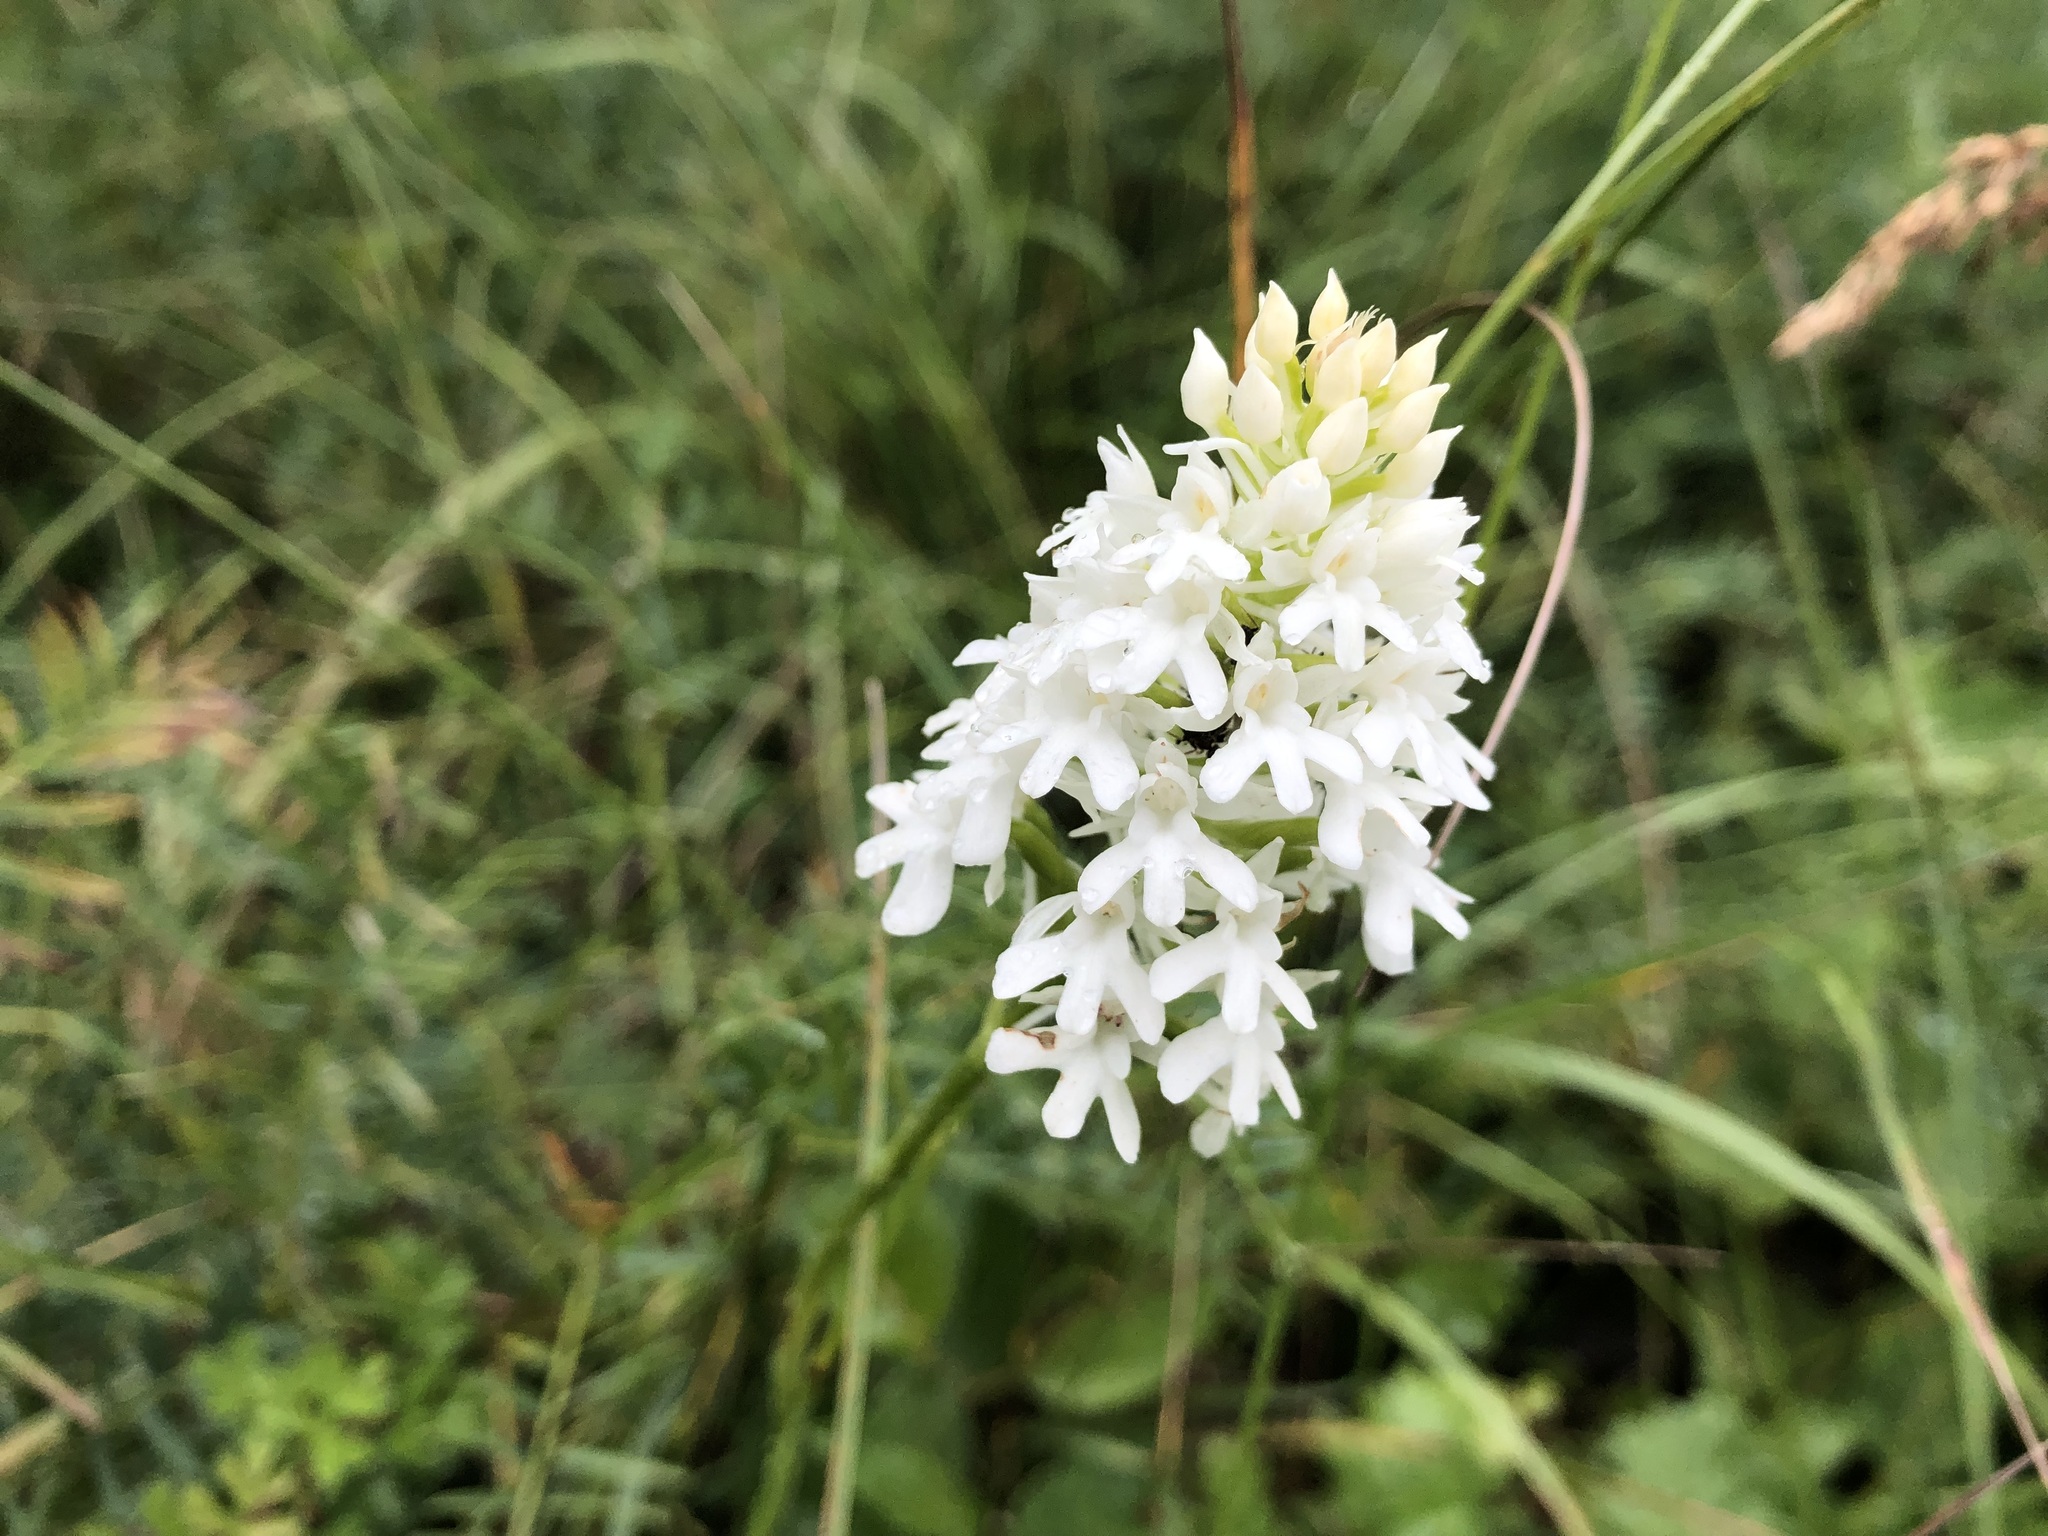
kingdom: Plantae
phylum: Tracheophyta
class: Liliopsida
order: Asparagales
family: Orchidaceae
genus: Anacamptis
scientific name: Anacamptis pyramidalis
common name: Pyramidal orchid
